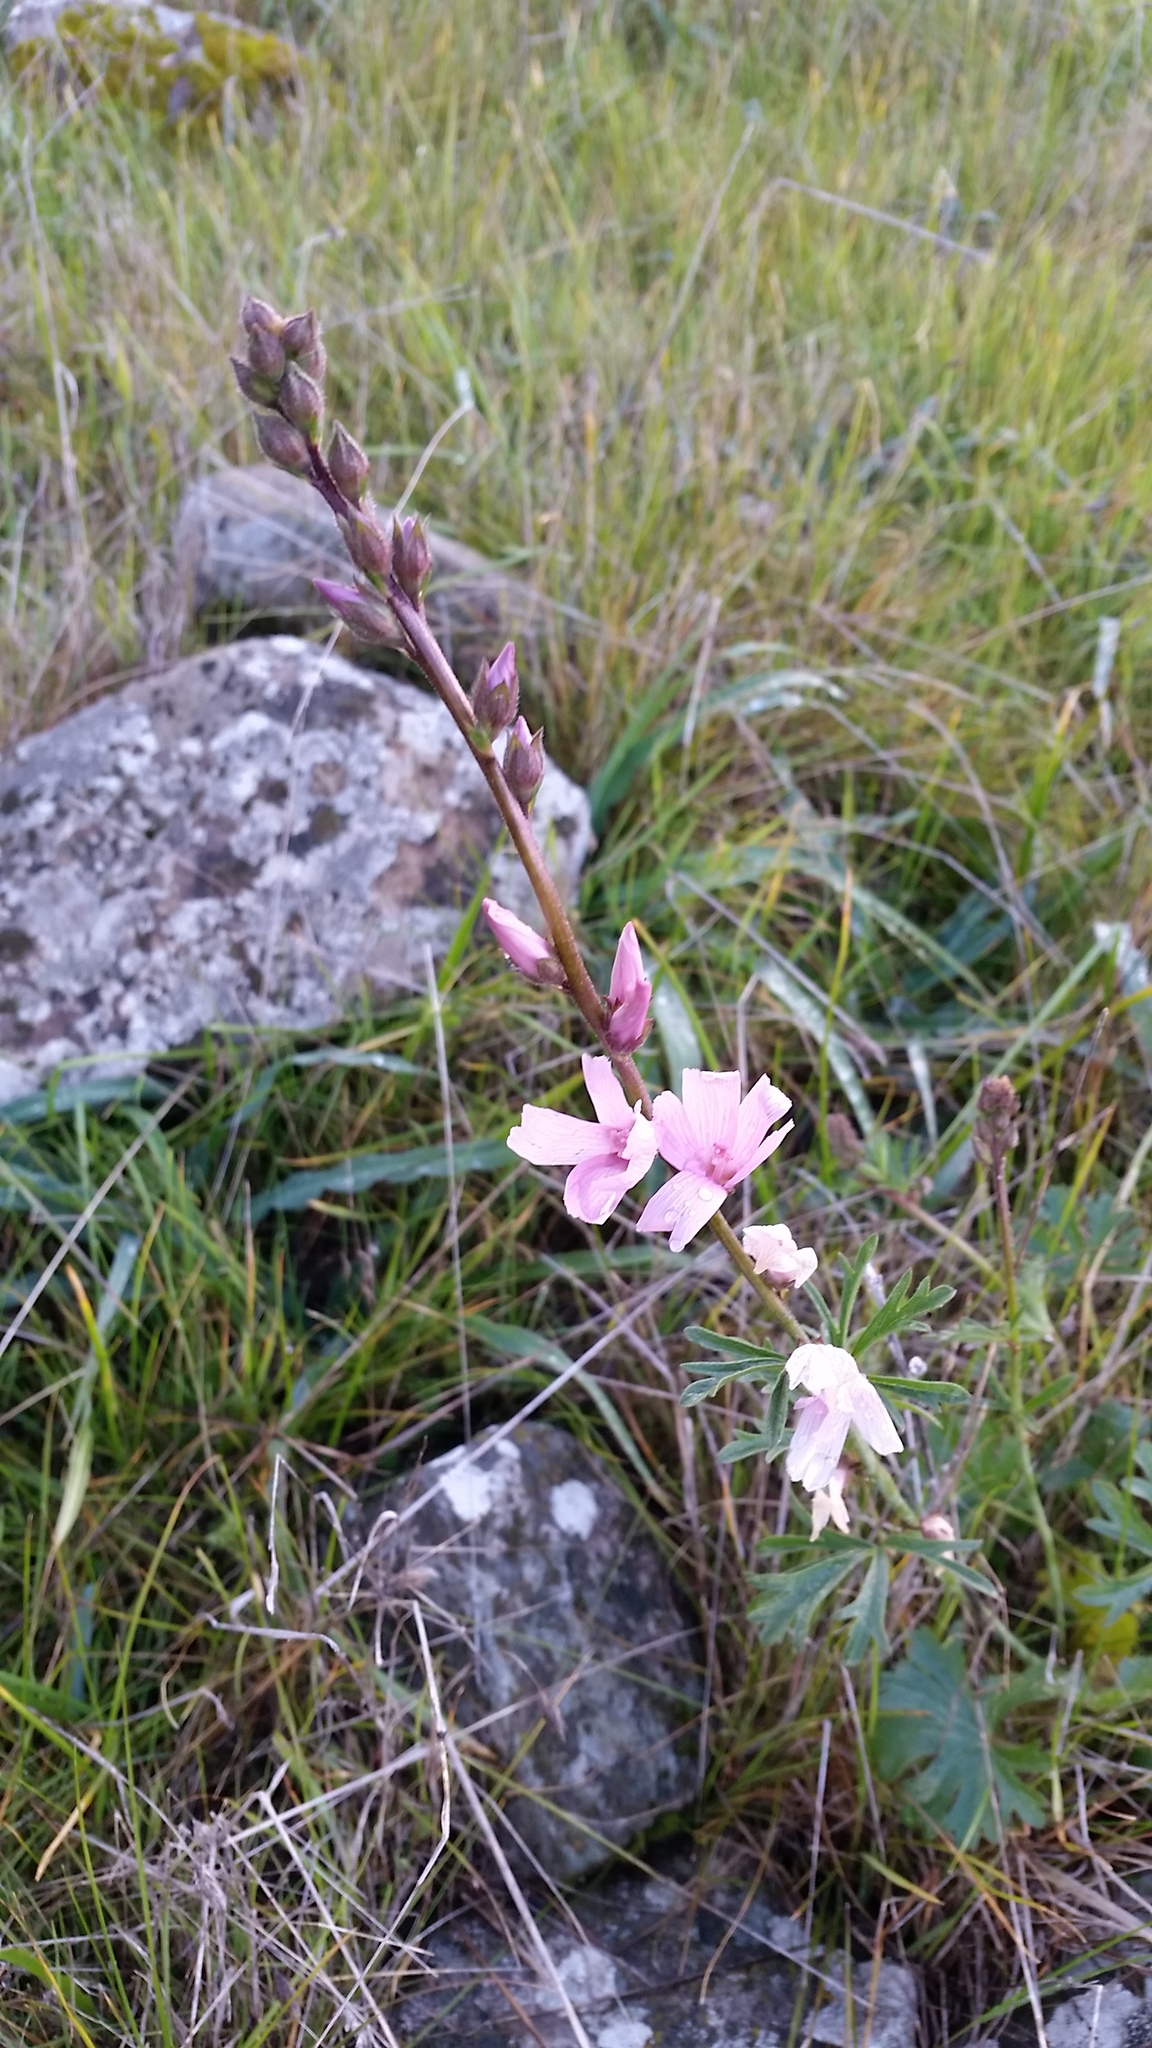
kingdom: Plantae
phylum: Tracheophyta
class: Magnoliopsida
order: Malvales
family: Malvaceae
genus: Sidalcea
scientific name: Sidalcea malviflora
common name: Greek mallow
